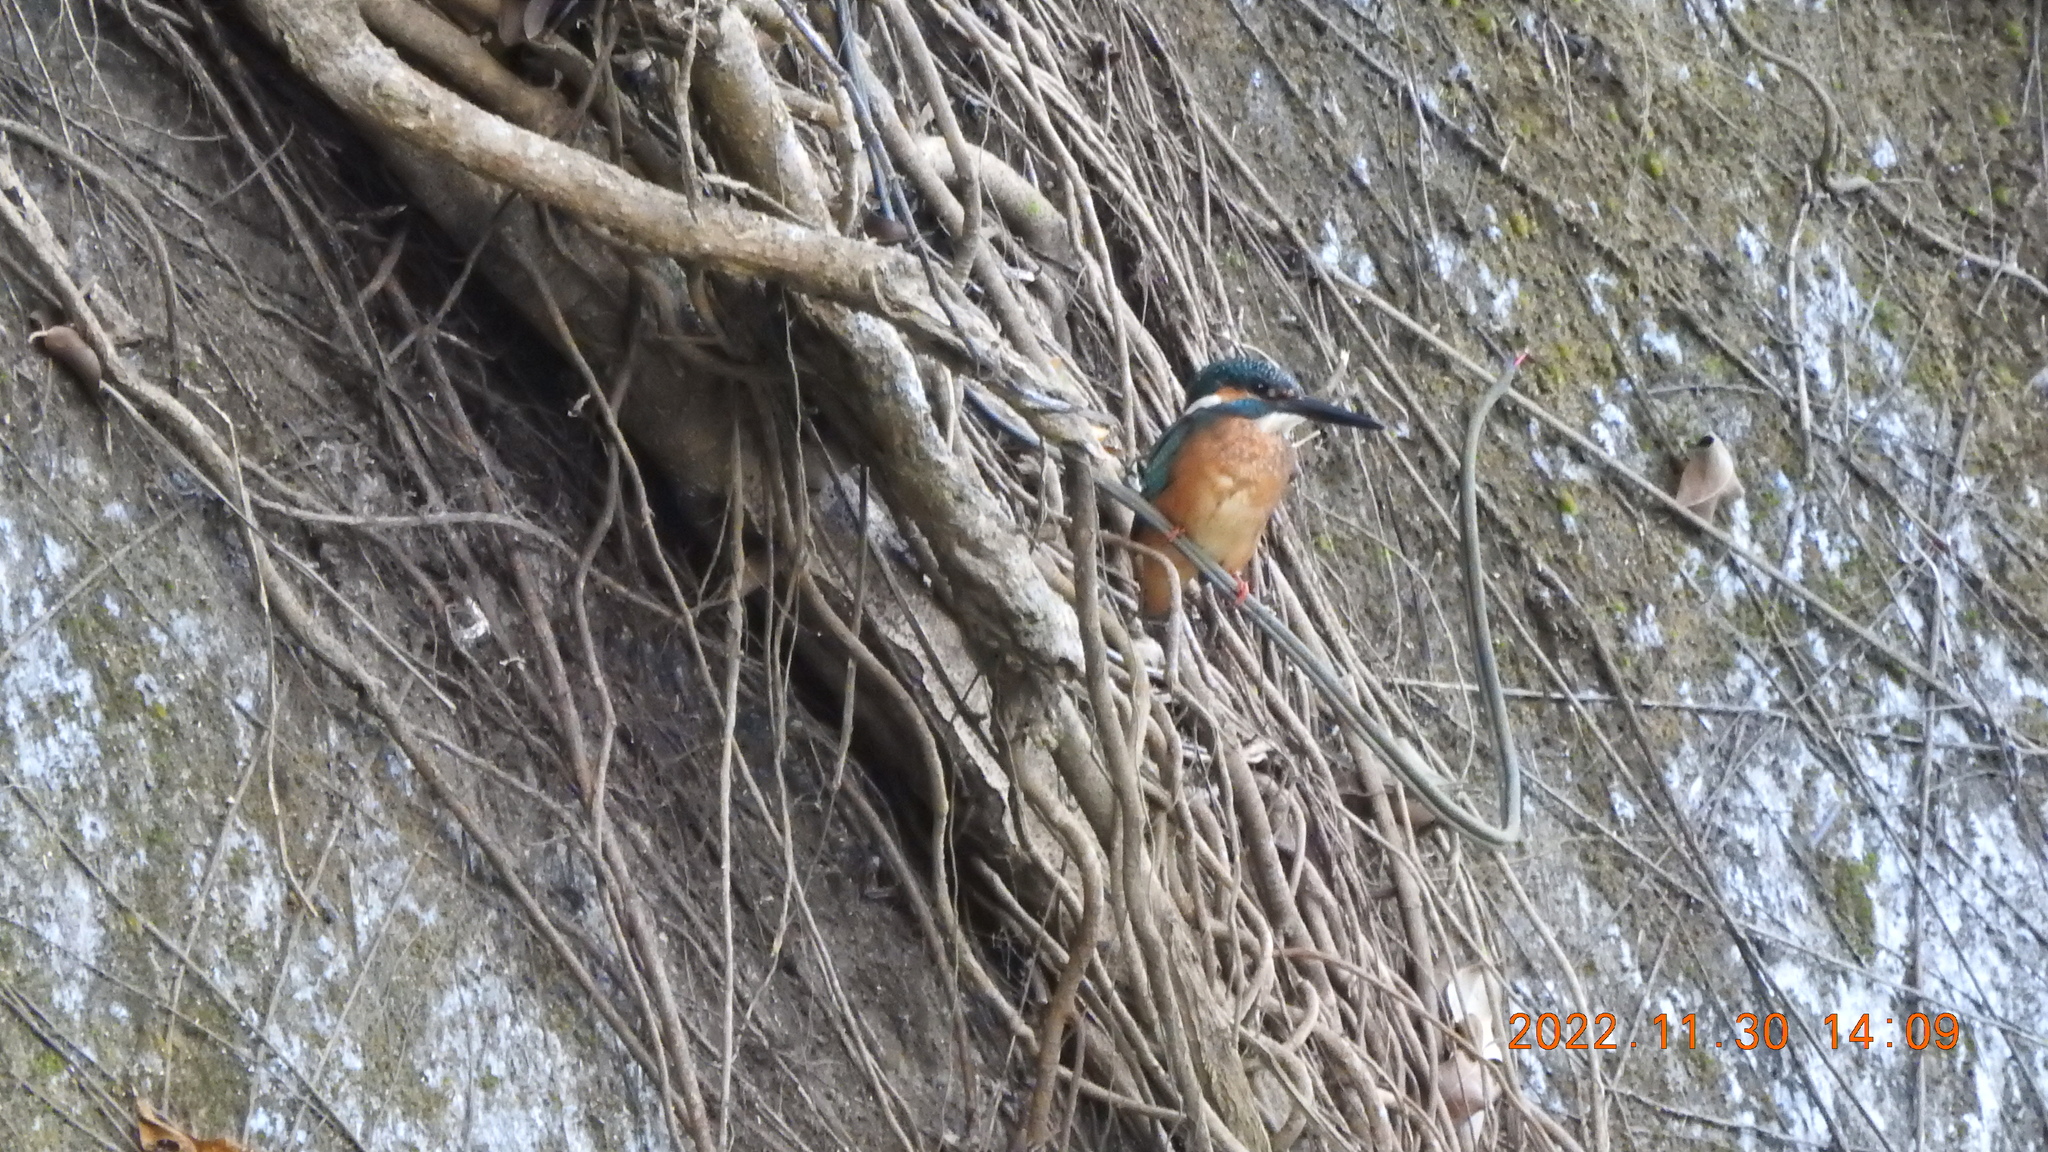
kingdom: Animalia
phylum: Chordata
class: Aves
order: Coraciiformes
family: Alcedinidae
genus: Alcedo
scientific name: Alcedo atthis
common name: Common kingfisher
